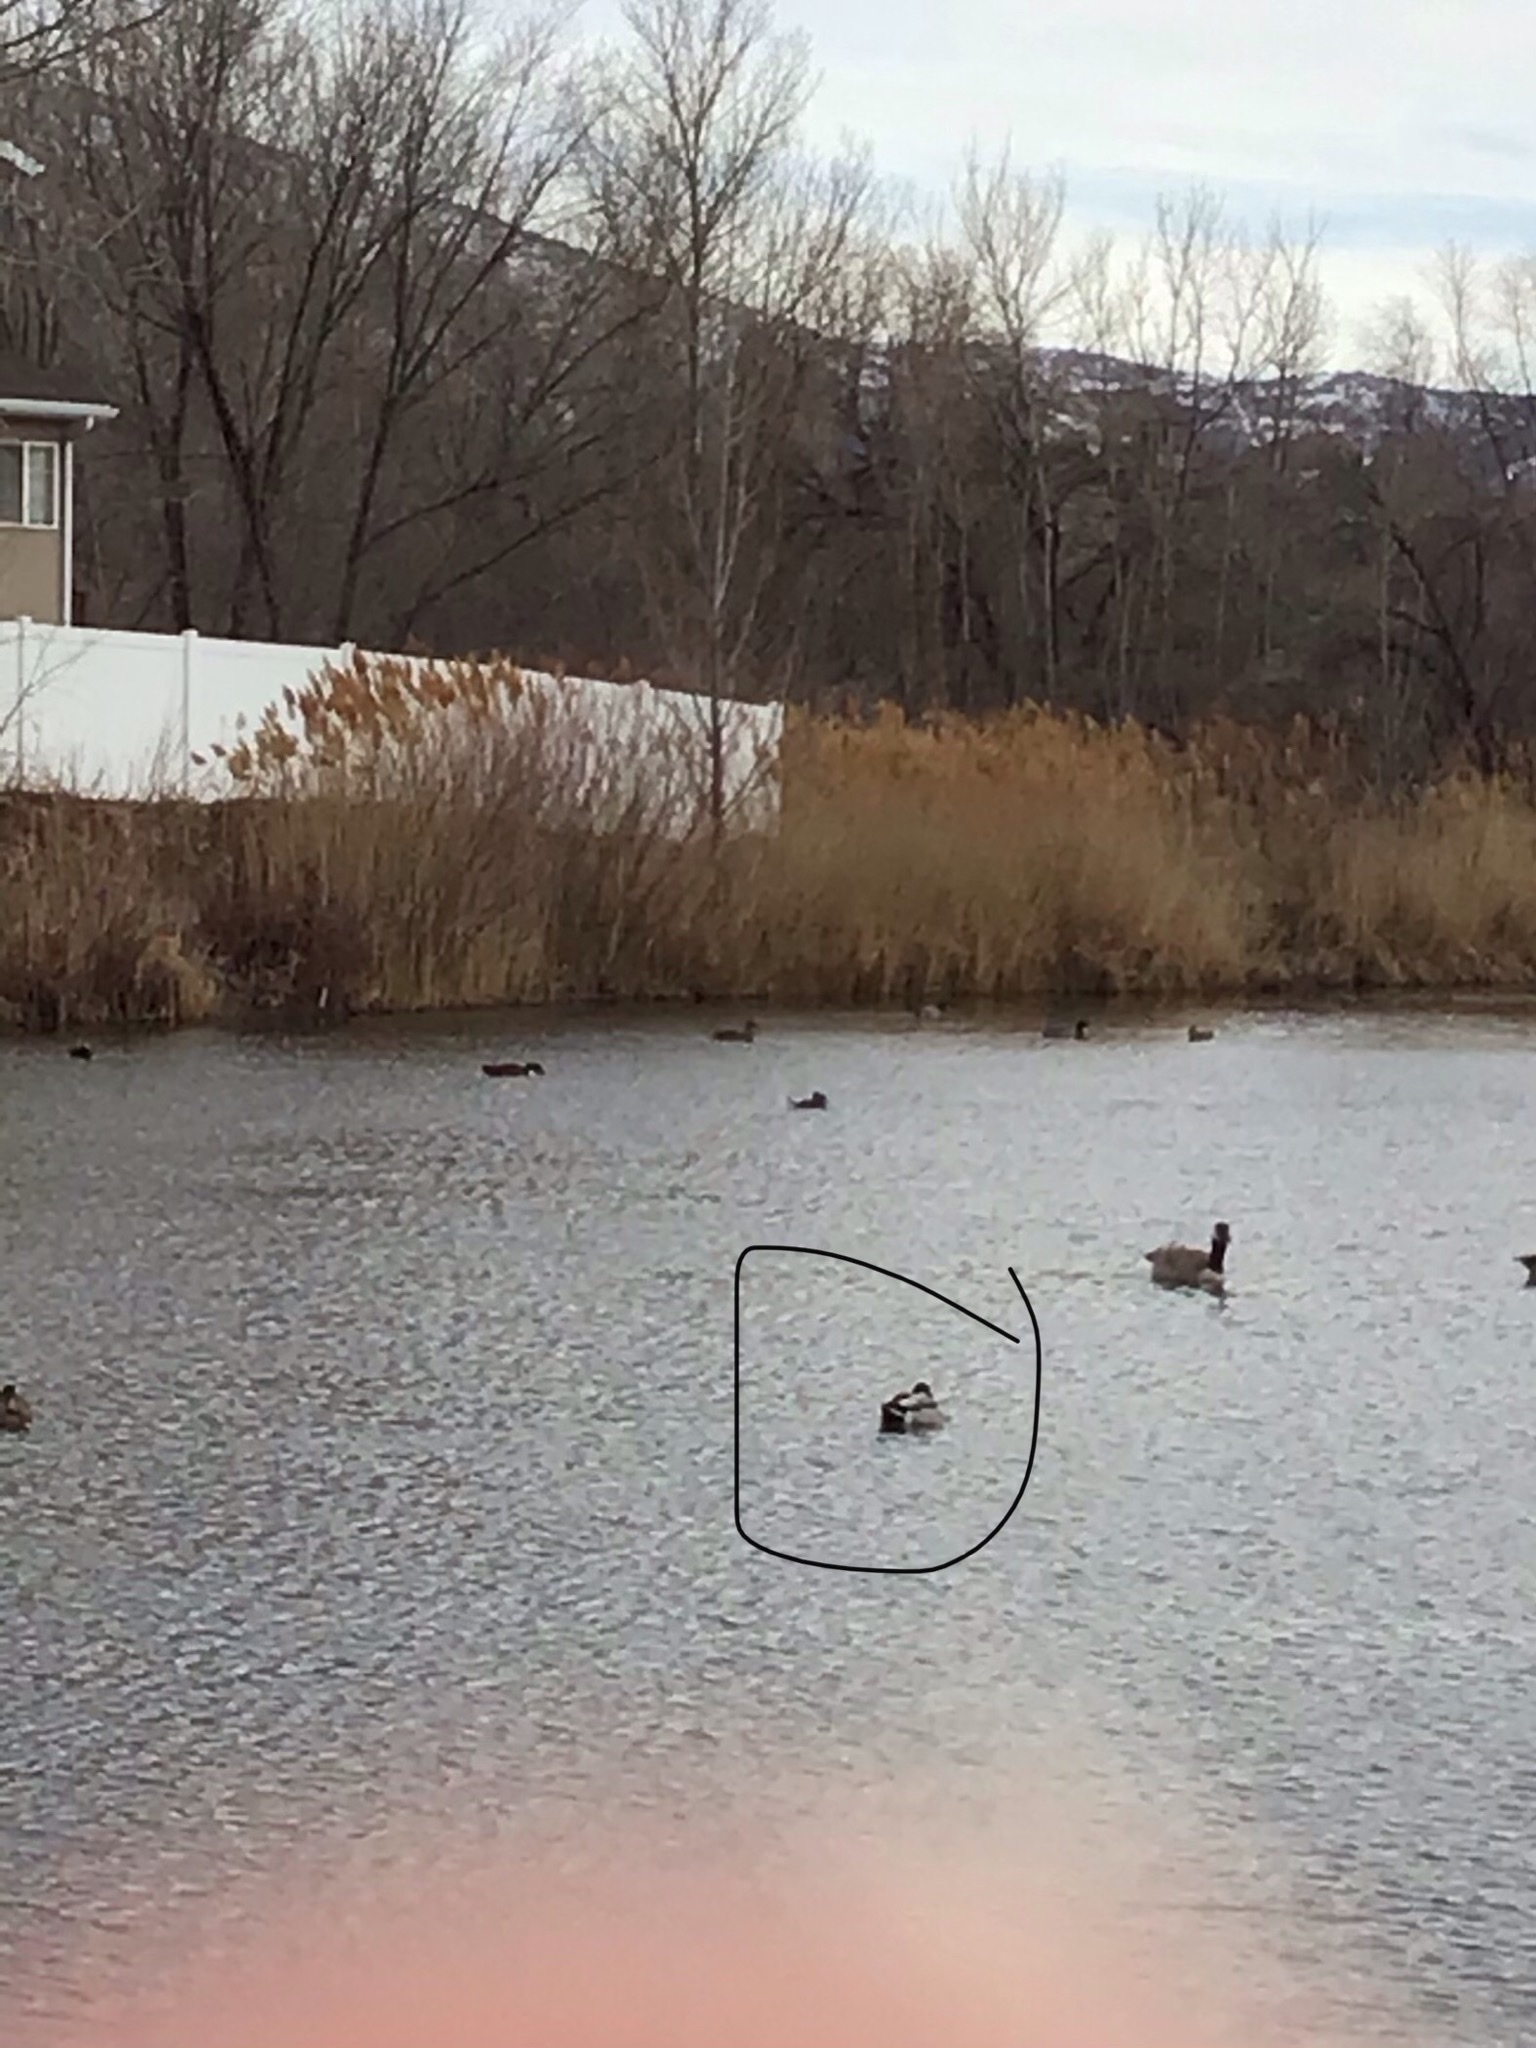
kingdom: Animalia
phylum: Chordata
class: Aves
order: Anseriformes
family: Anatidae
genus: Anas
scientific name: Anas platyrhynchos
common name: Mallard
